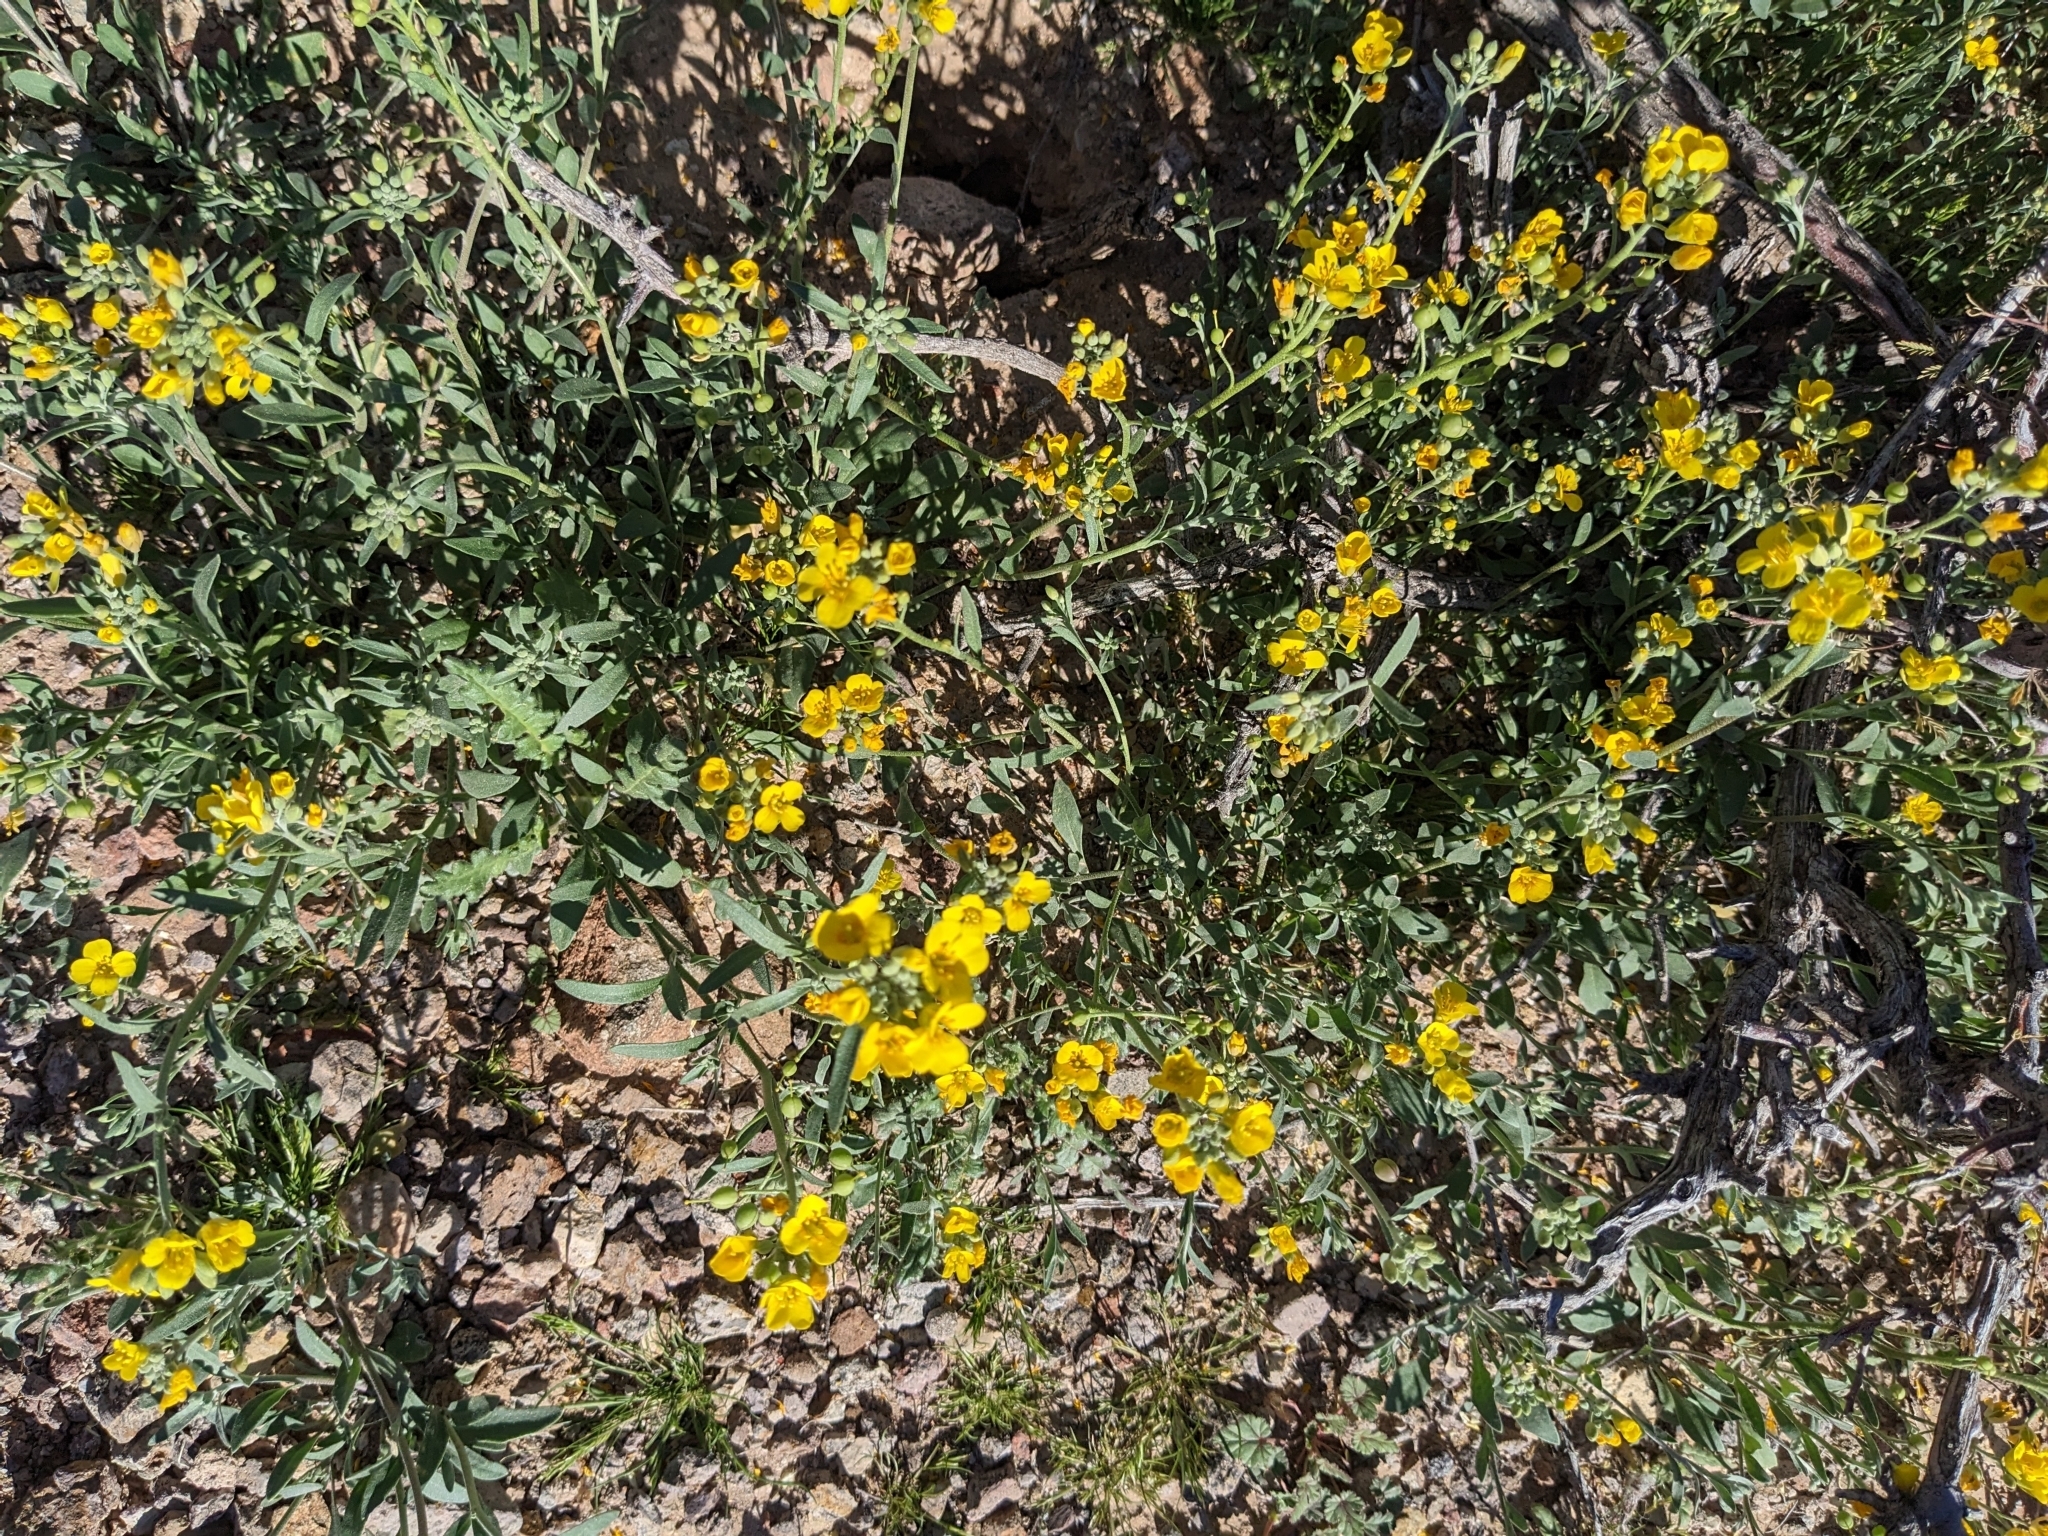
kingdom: Plantae
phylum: Tracheophyta
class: Magnoliopsida
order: Brassicales
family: Brassicaceae
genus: Physaria
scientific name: Physaria gordonii
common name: Gordon's bladderpod
